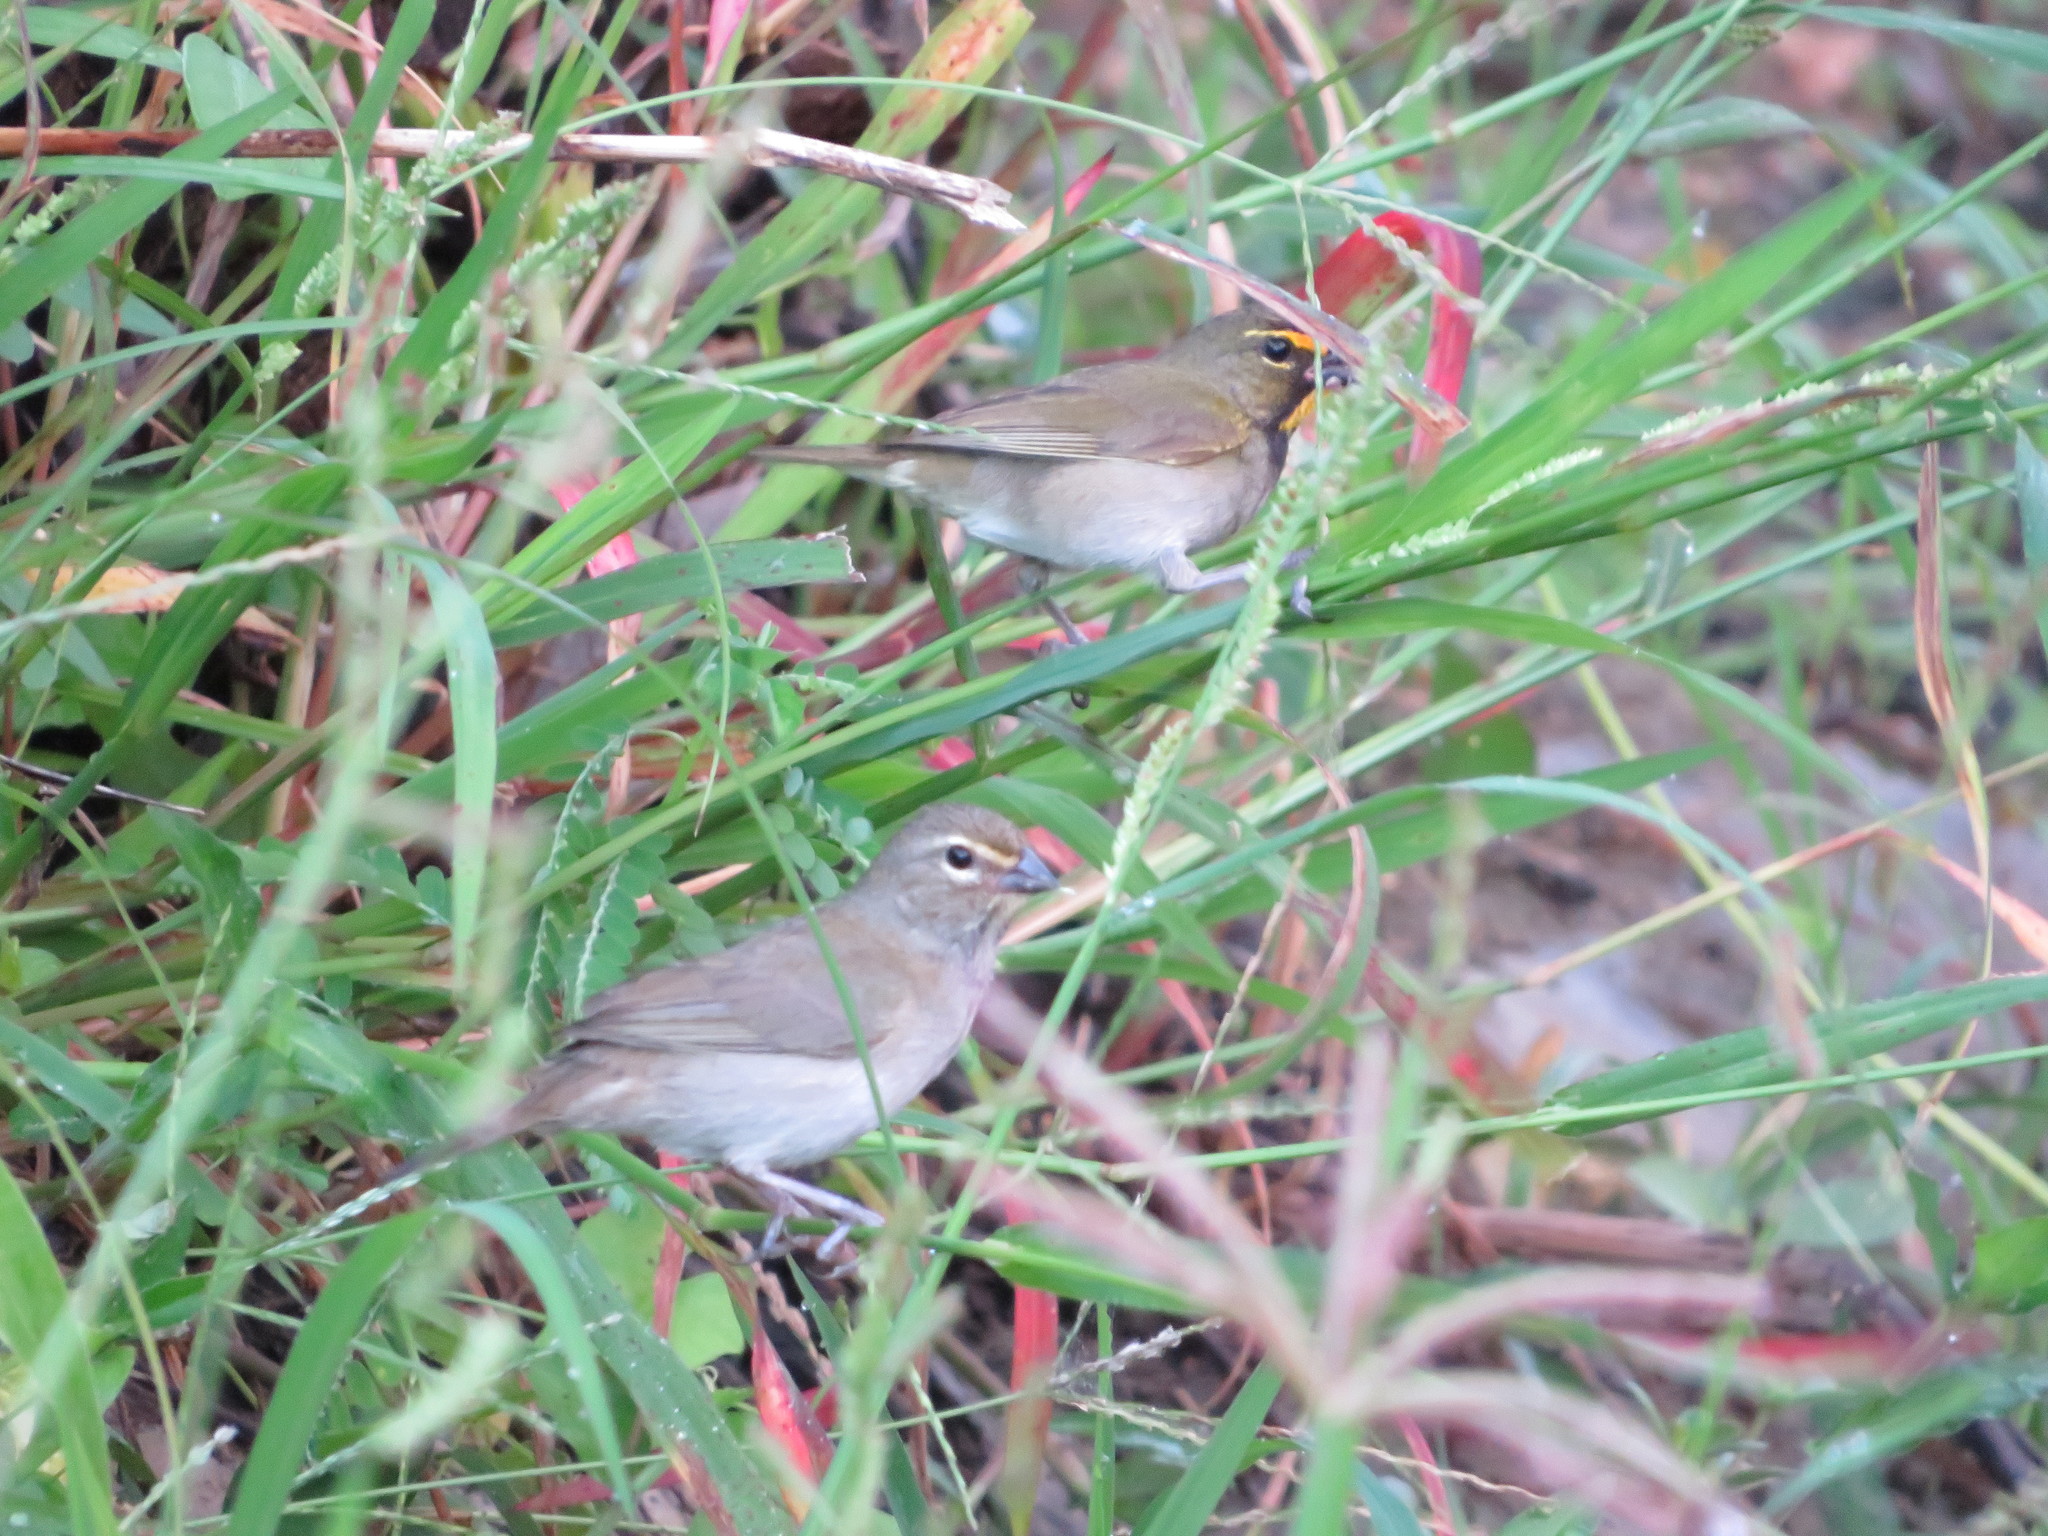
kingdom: Animalia
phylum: Chordata
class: Aves
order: Passeriformes
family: Thraupidae
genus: Tiaris
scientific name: Tiaris olivaceus
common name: Yellow-faced grassquit
